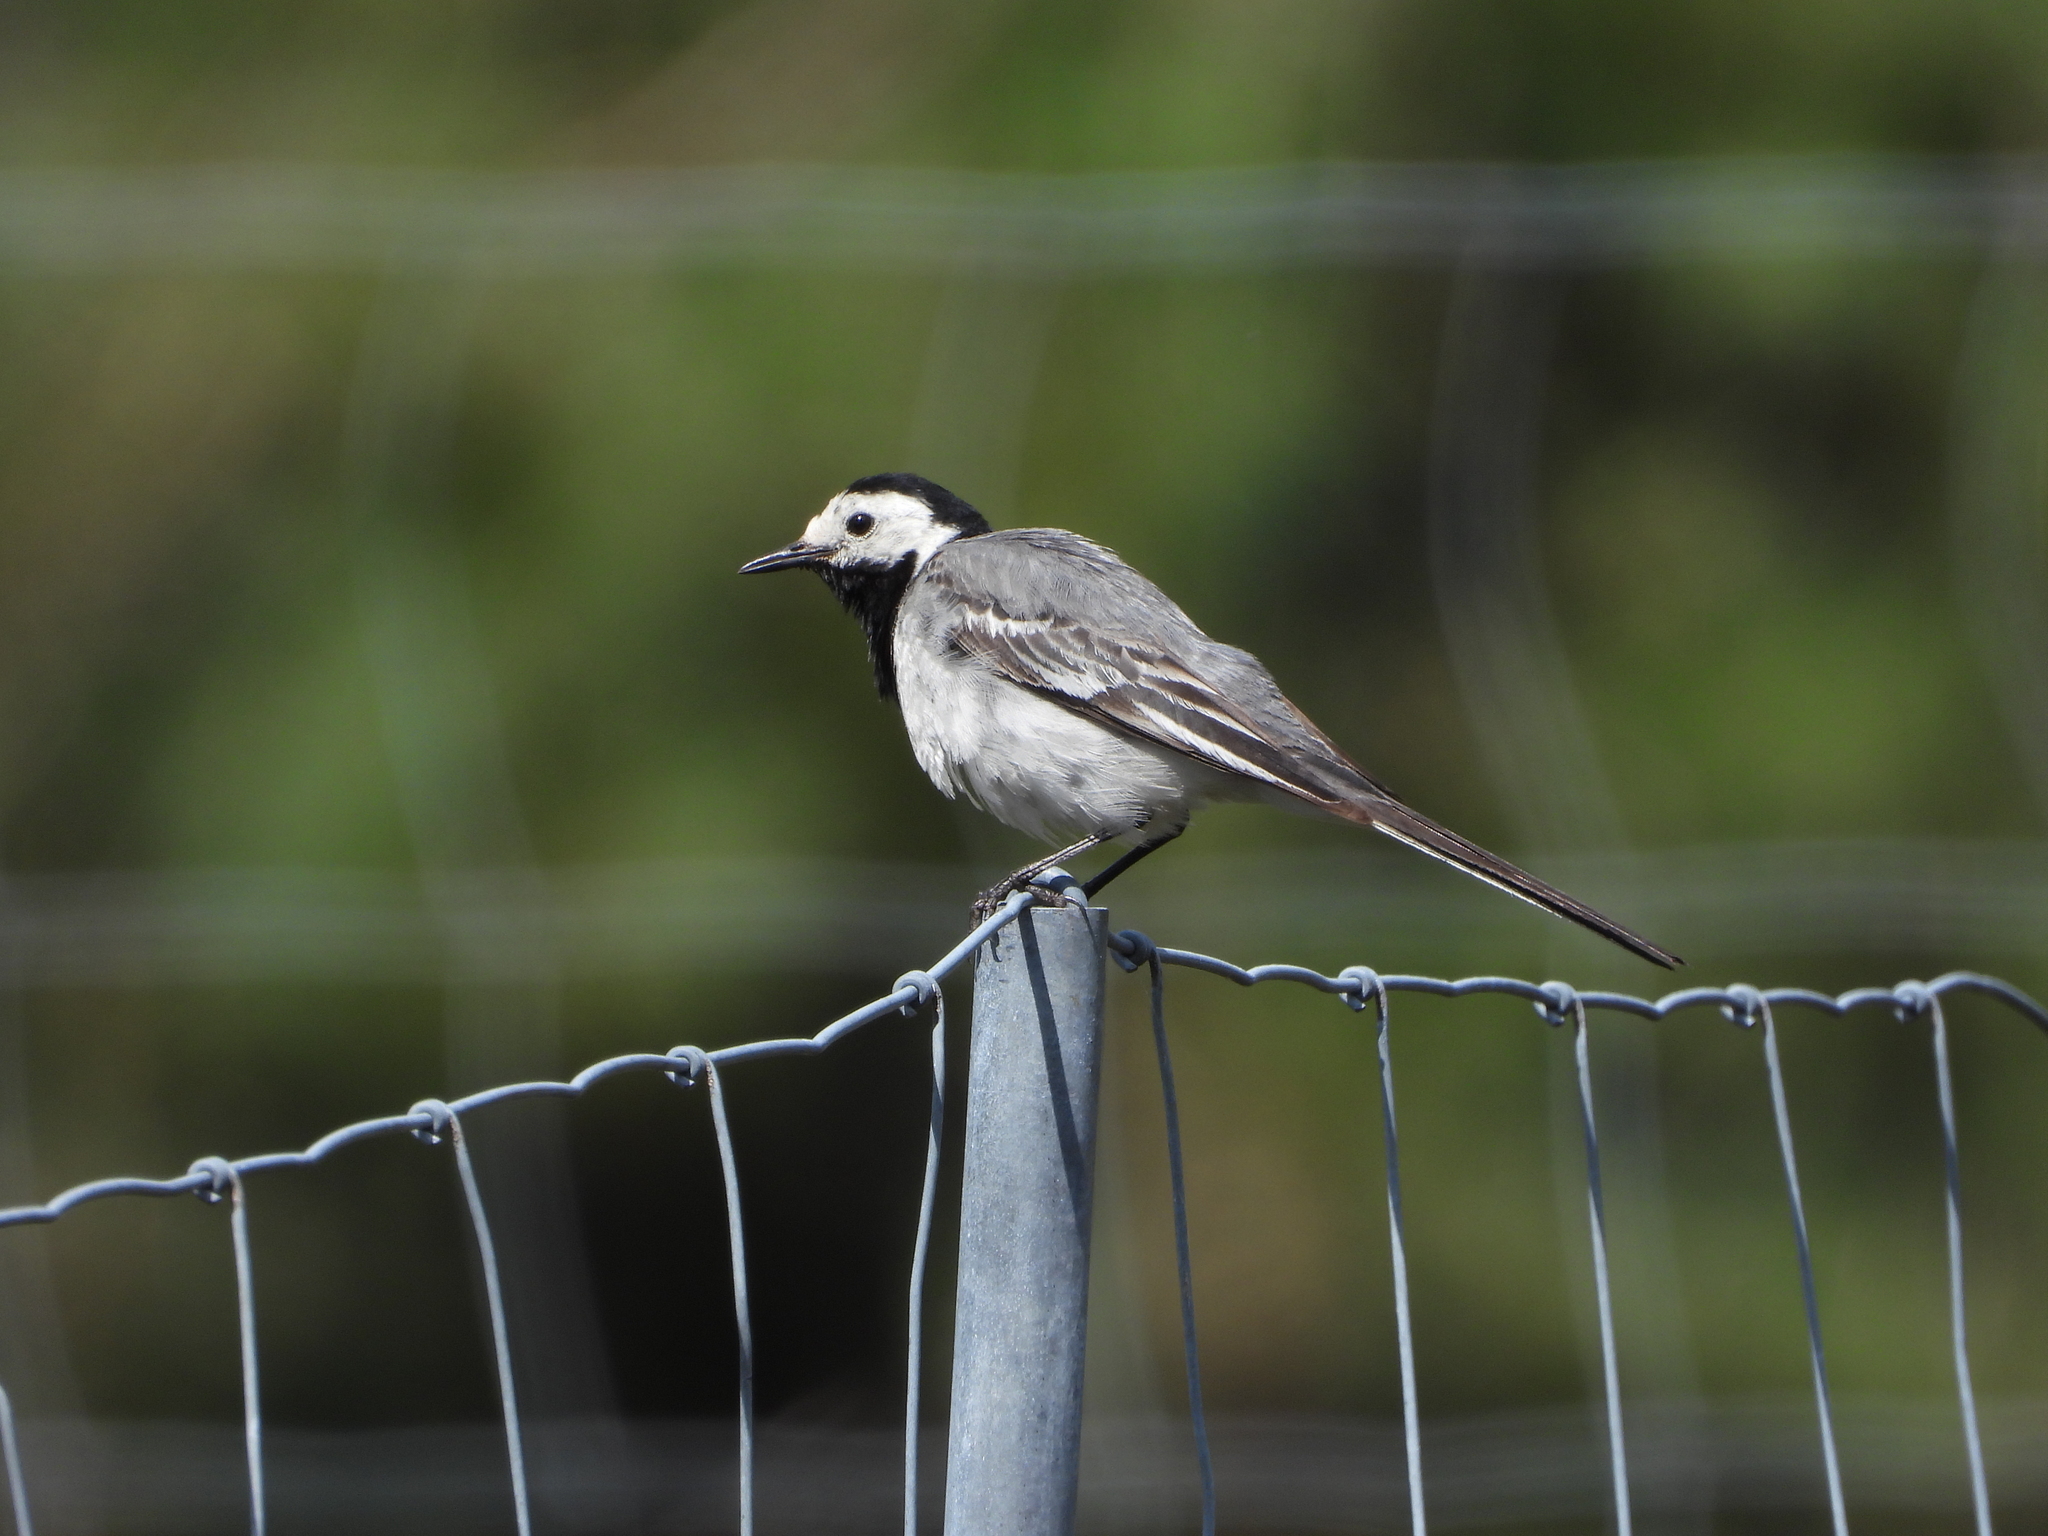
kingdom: Animalia
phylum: Chordata
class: Aves
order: Passeriformes
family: Motacillidae
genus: Motacilla
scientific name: Motacilla alba
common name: White wagtail
